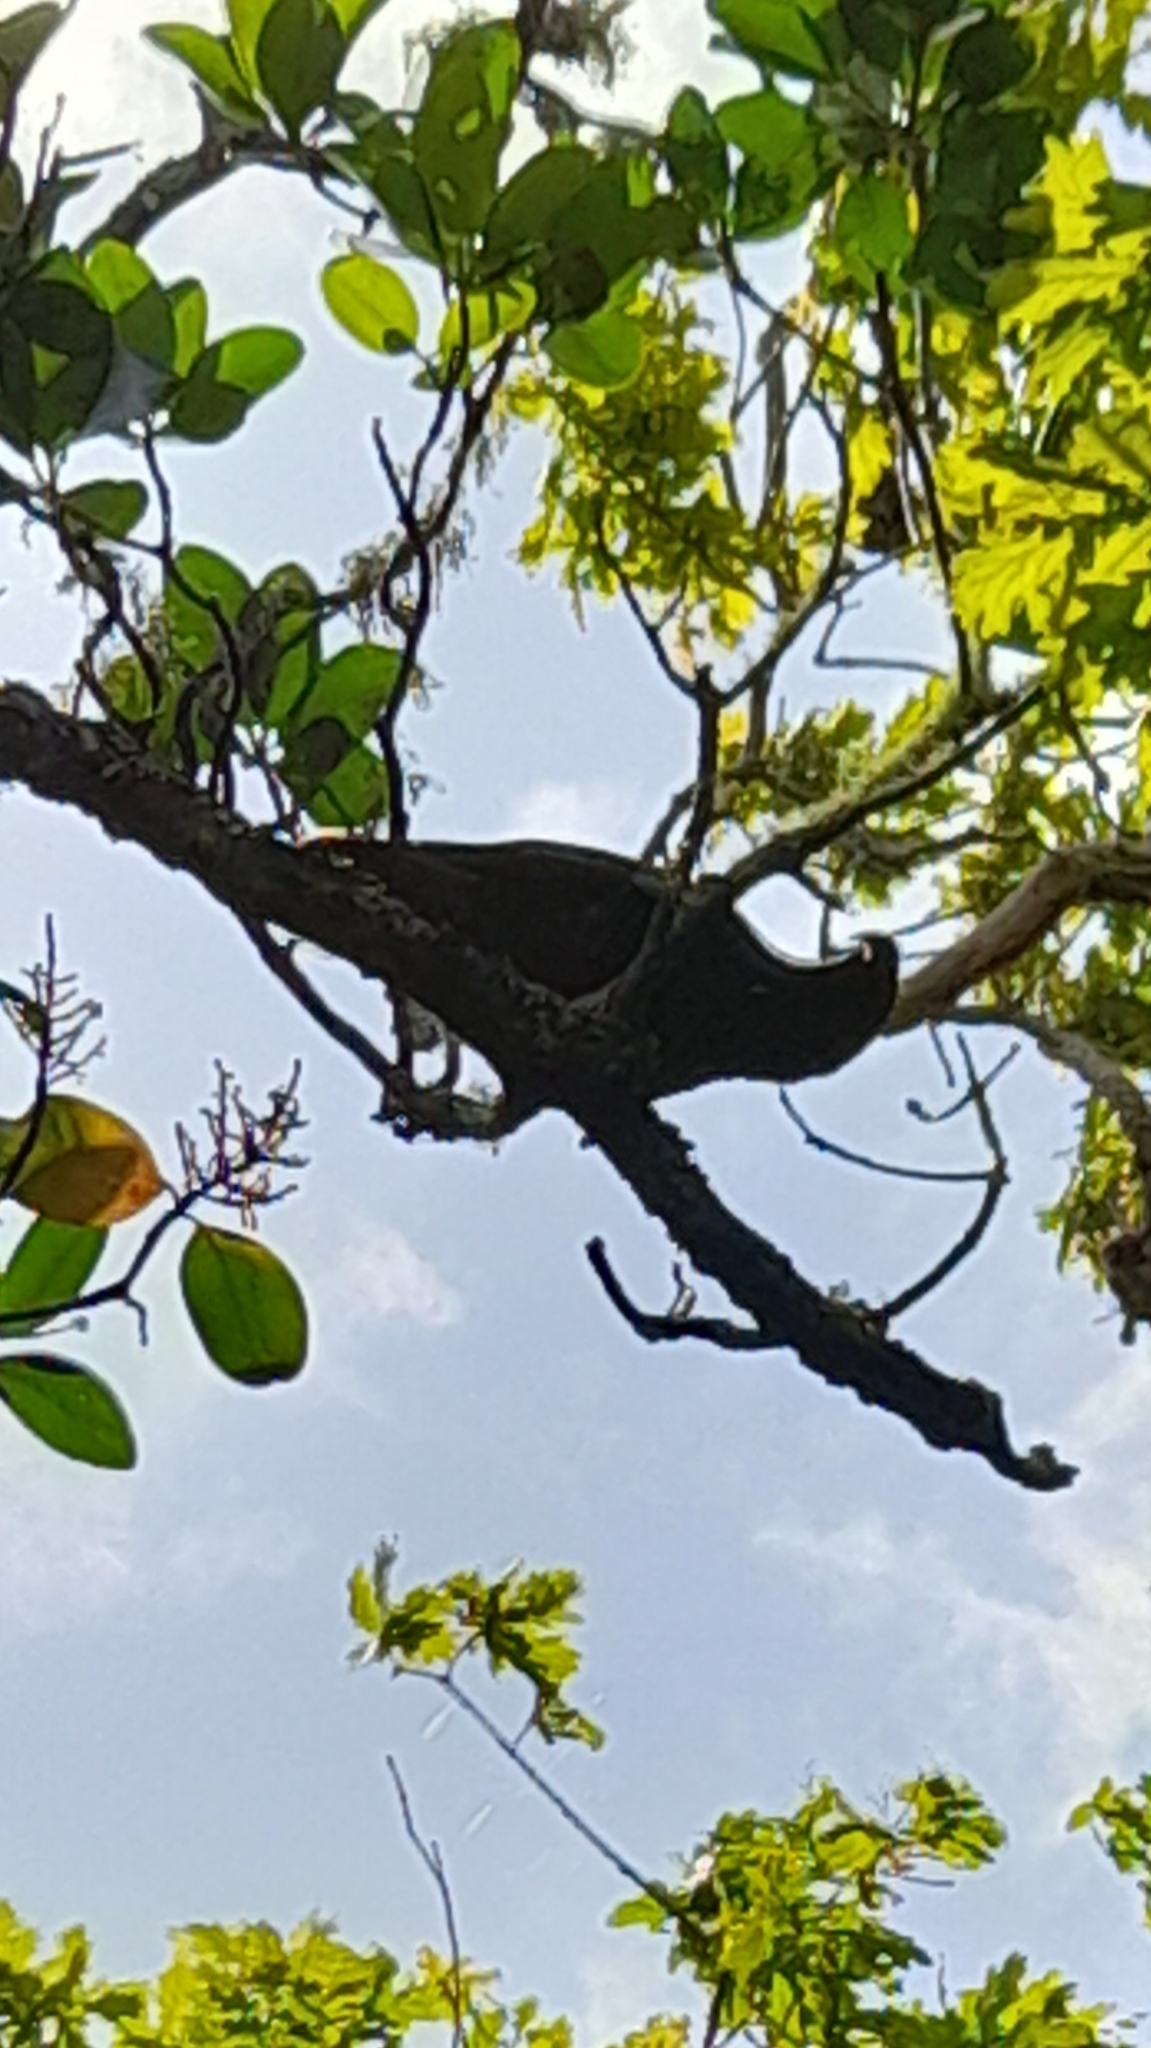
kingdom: Animalia
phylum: Chordata
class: Aves
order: Psittaciformes
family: Psittacidae
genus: Nestor
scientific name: Nestor meridionalis
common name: New zealand kaka
